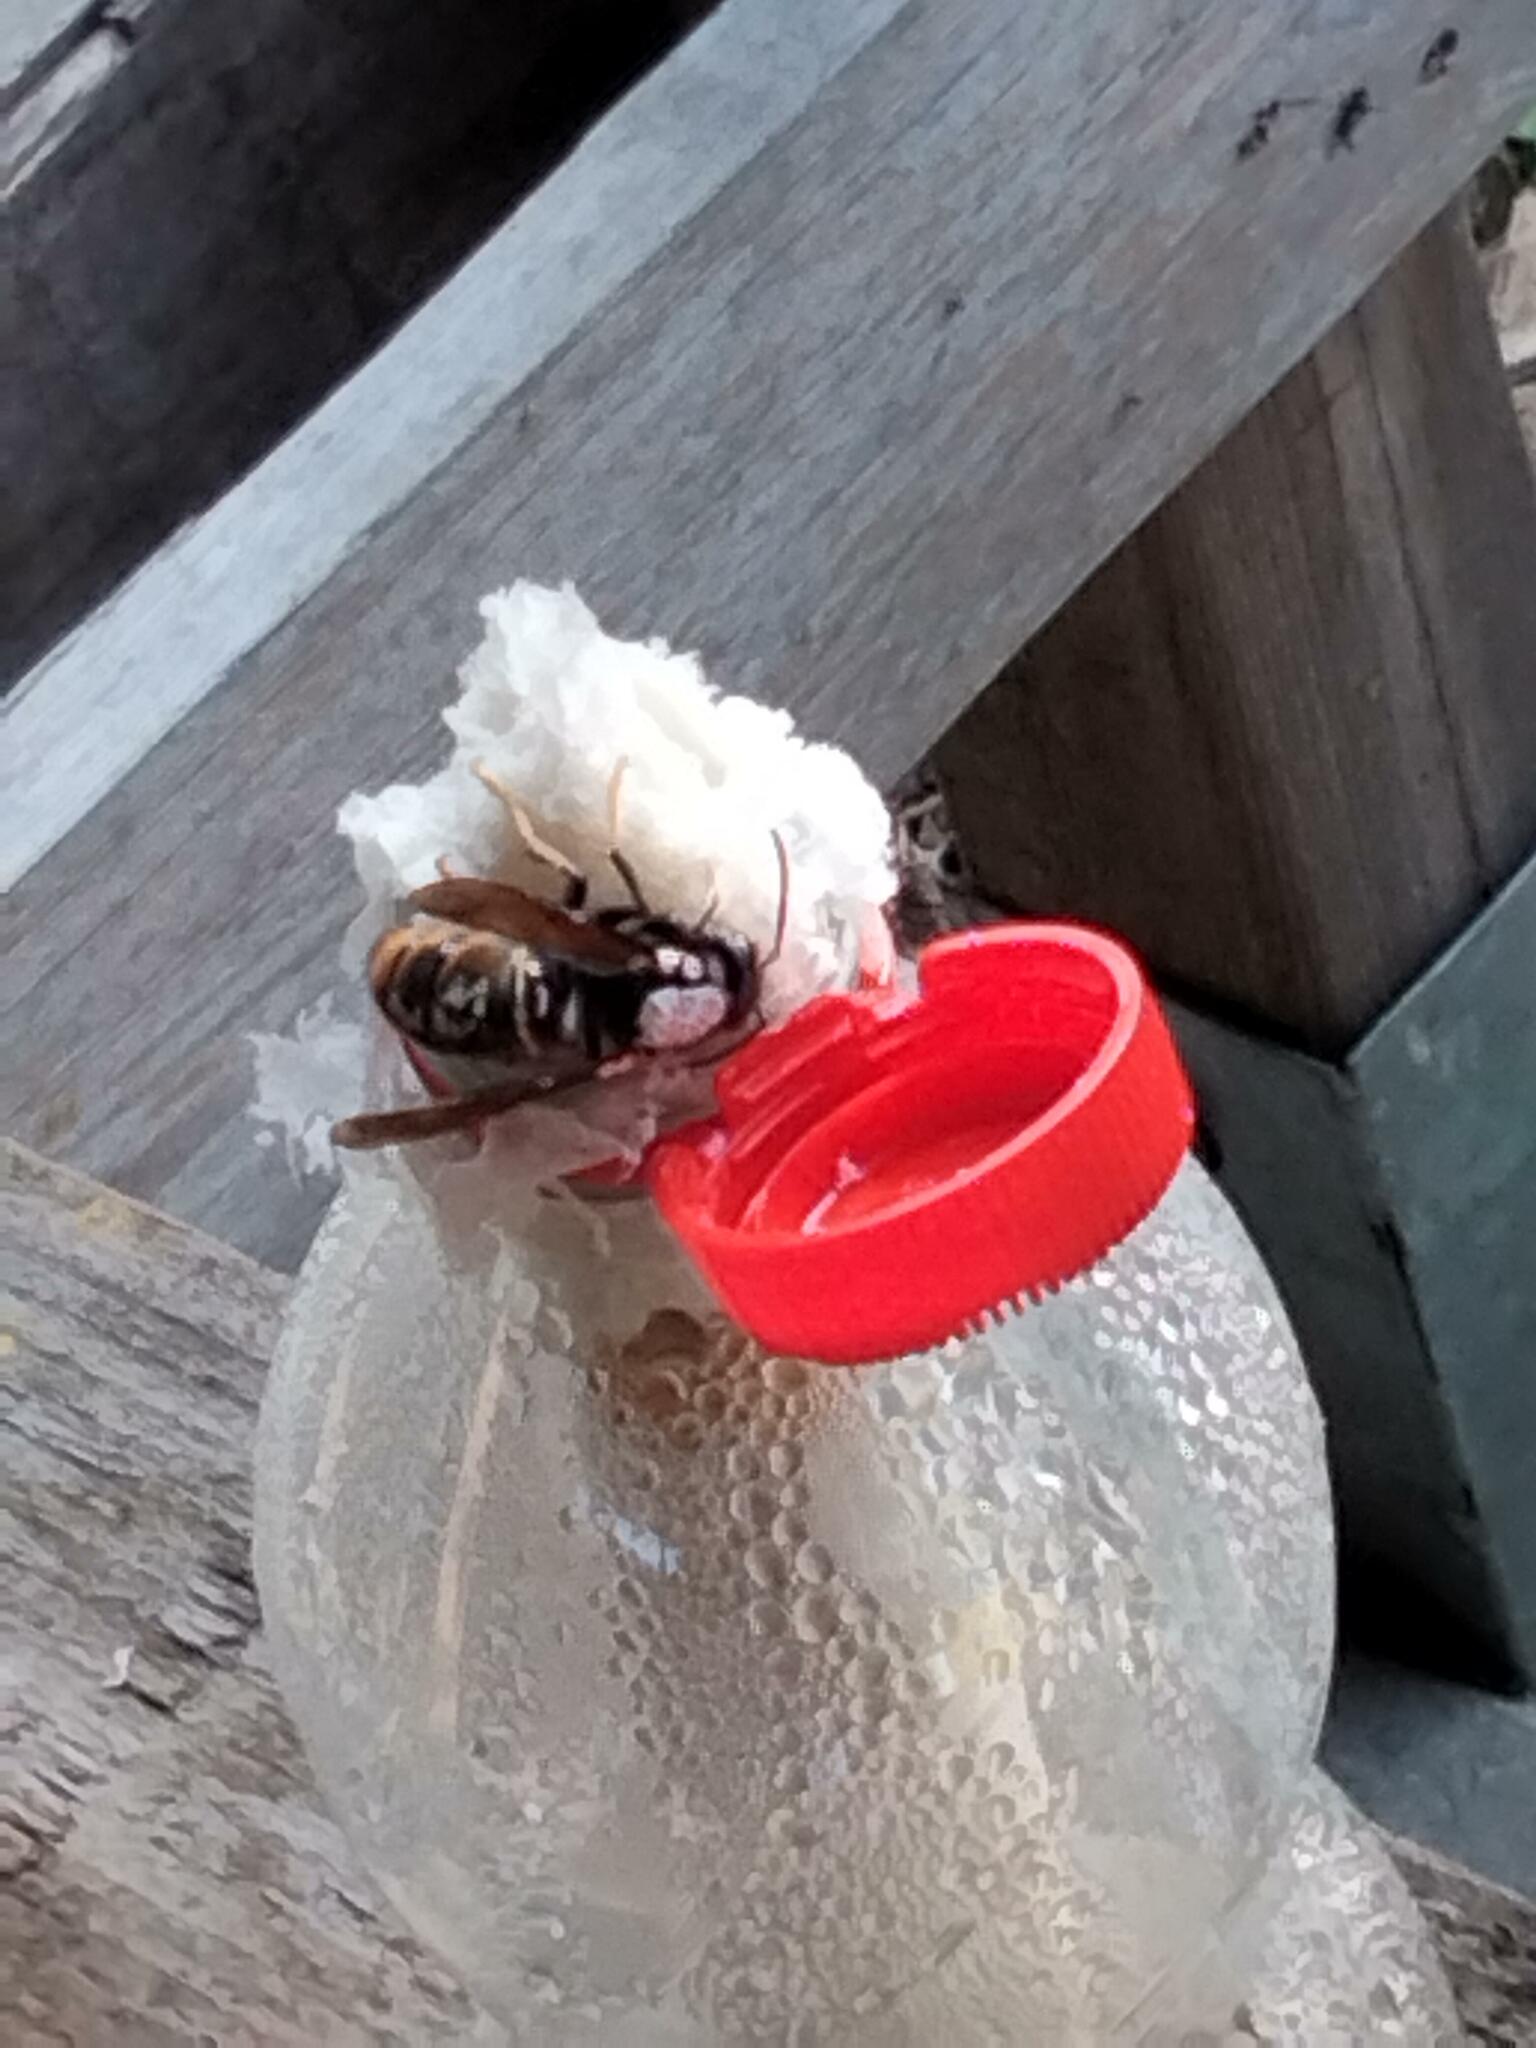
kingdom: Animalia
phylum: Arthropoda
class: Insecta
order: Hymenoptera
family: Vespidae
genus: Vespa
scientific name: Vespa velutina
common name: Asian hornet
